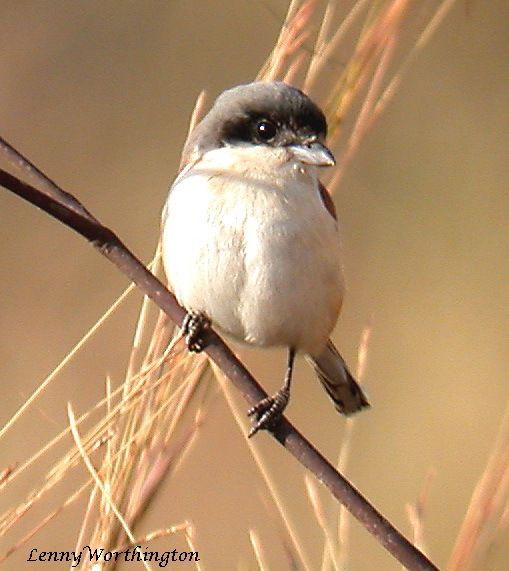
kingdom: Animalia
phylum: Chordata
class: Aves
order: Passeriformes
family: Laniidae
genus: Lanius
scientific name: Lanius collurioides
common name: Burmese shrike
